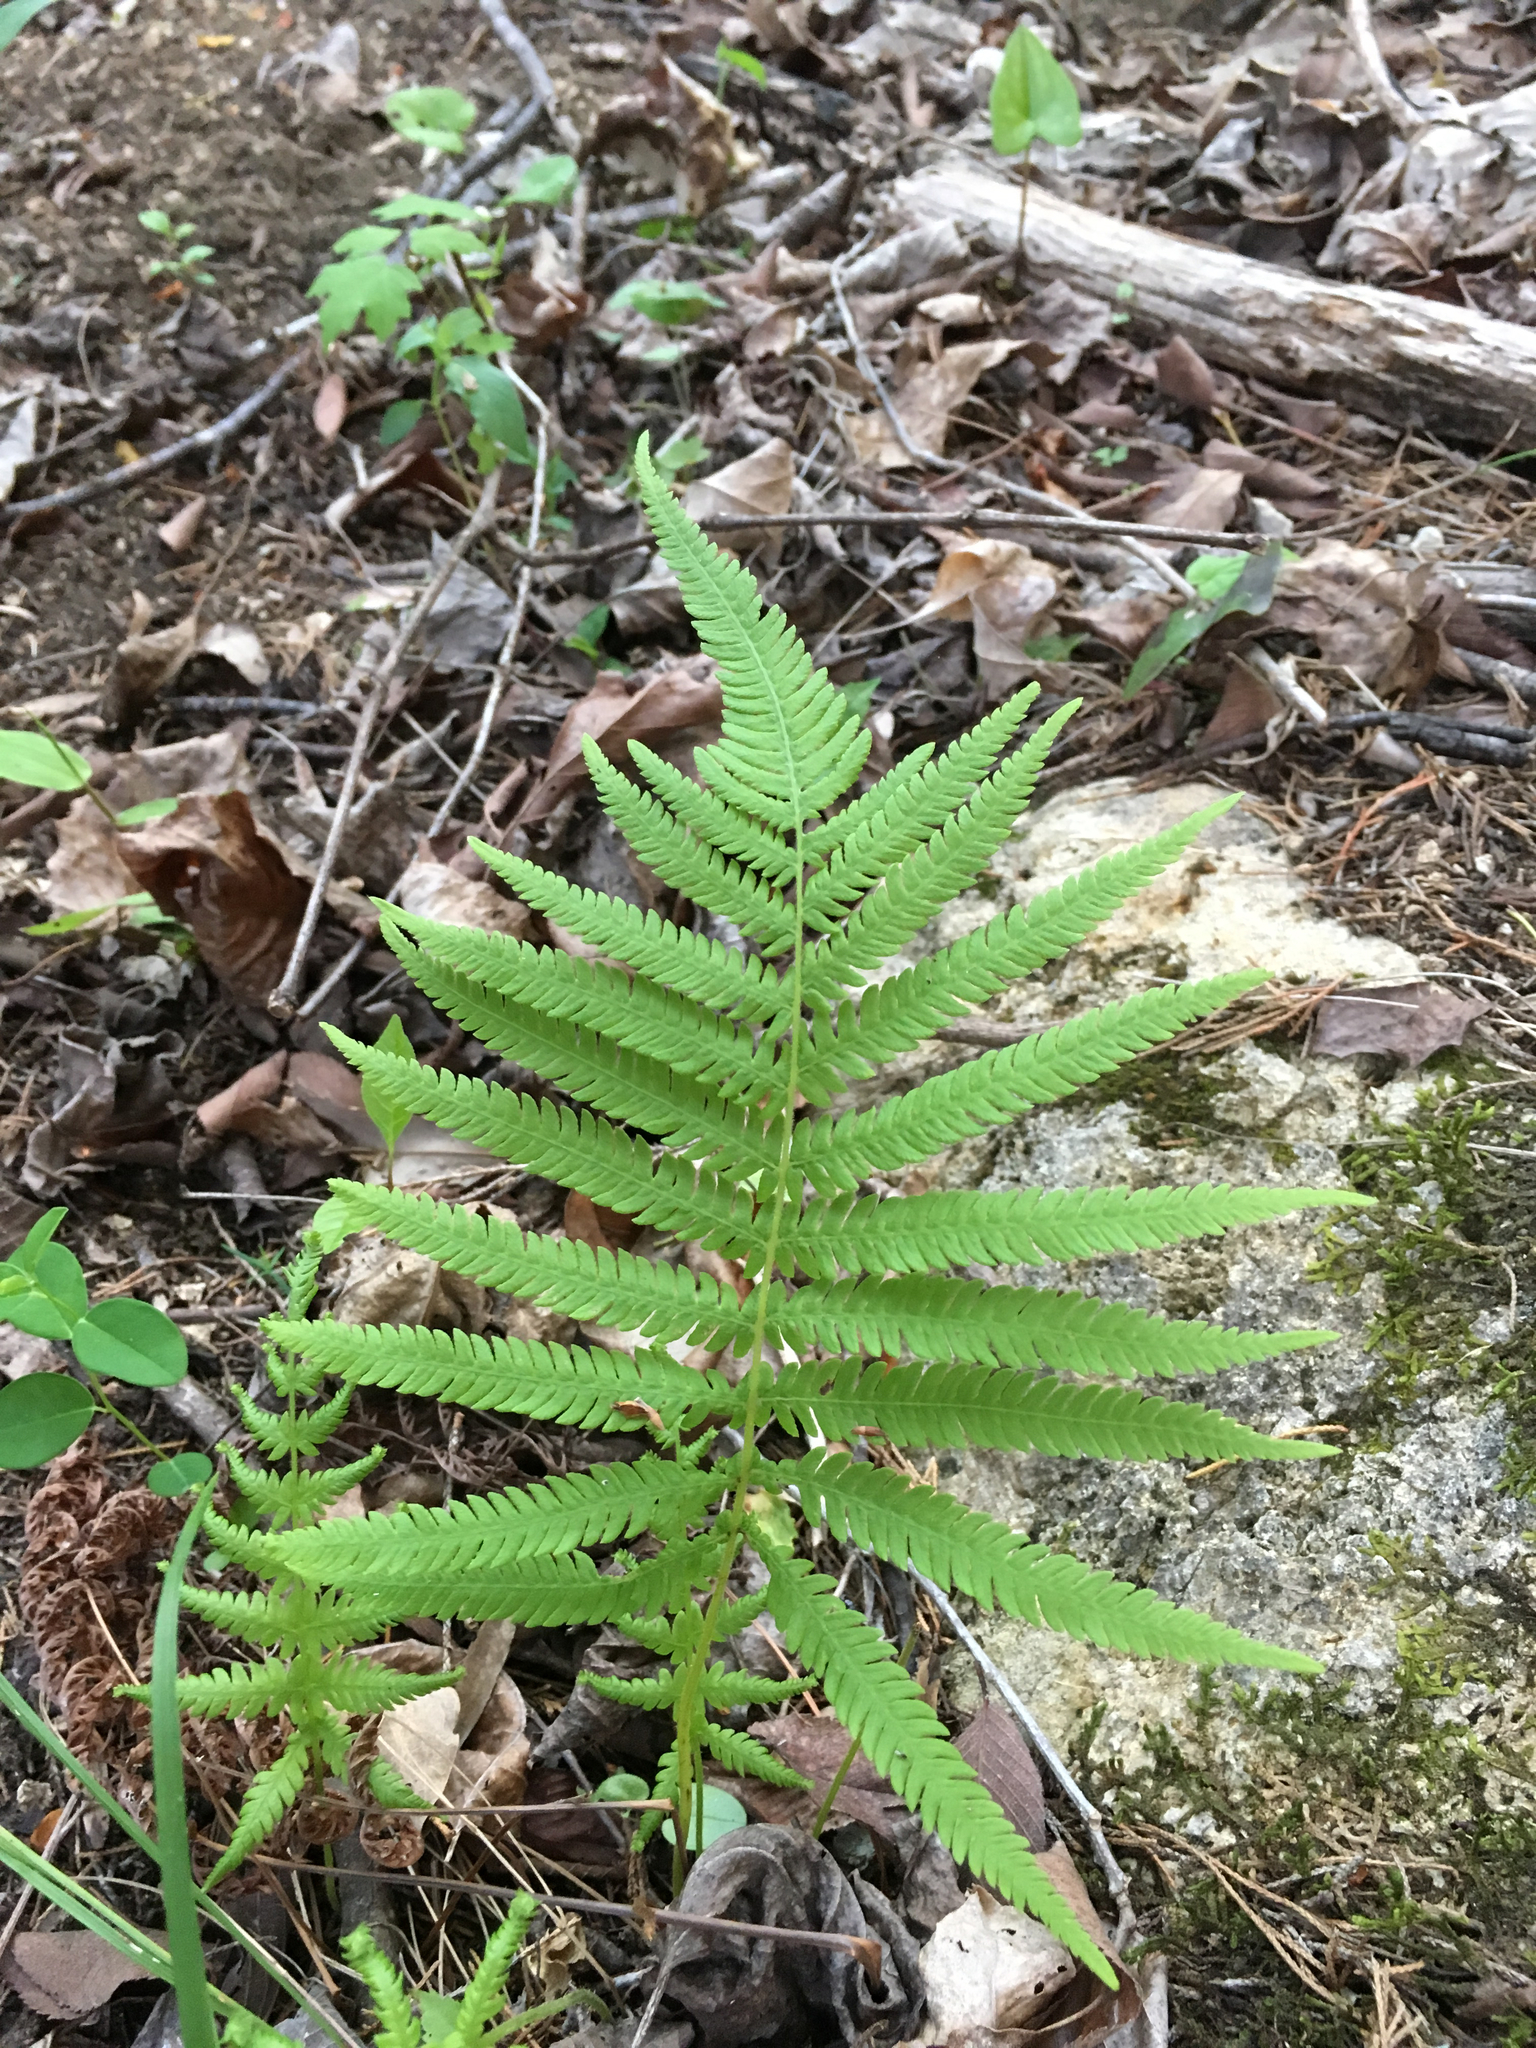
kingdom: Plantae
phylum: Tracheophyta
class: Polypodiopsida
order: Polypodiales
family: Thelypteridaceae
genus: Pelazoneuron
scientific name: Pelazoneuron ovatum
